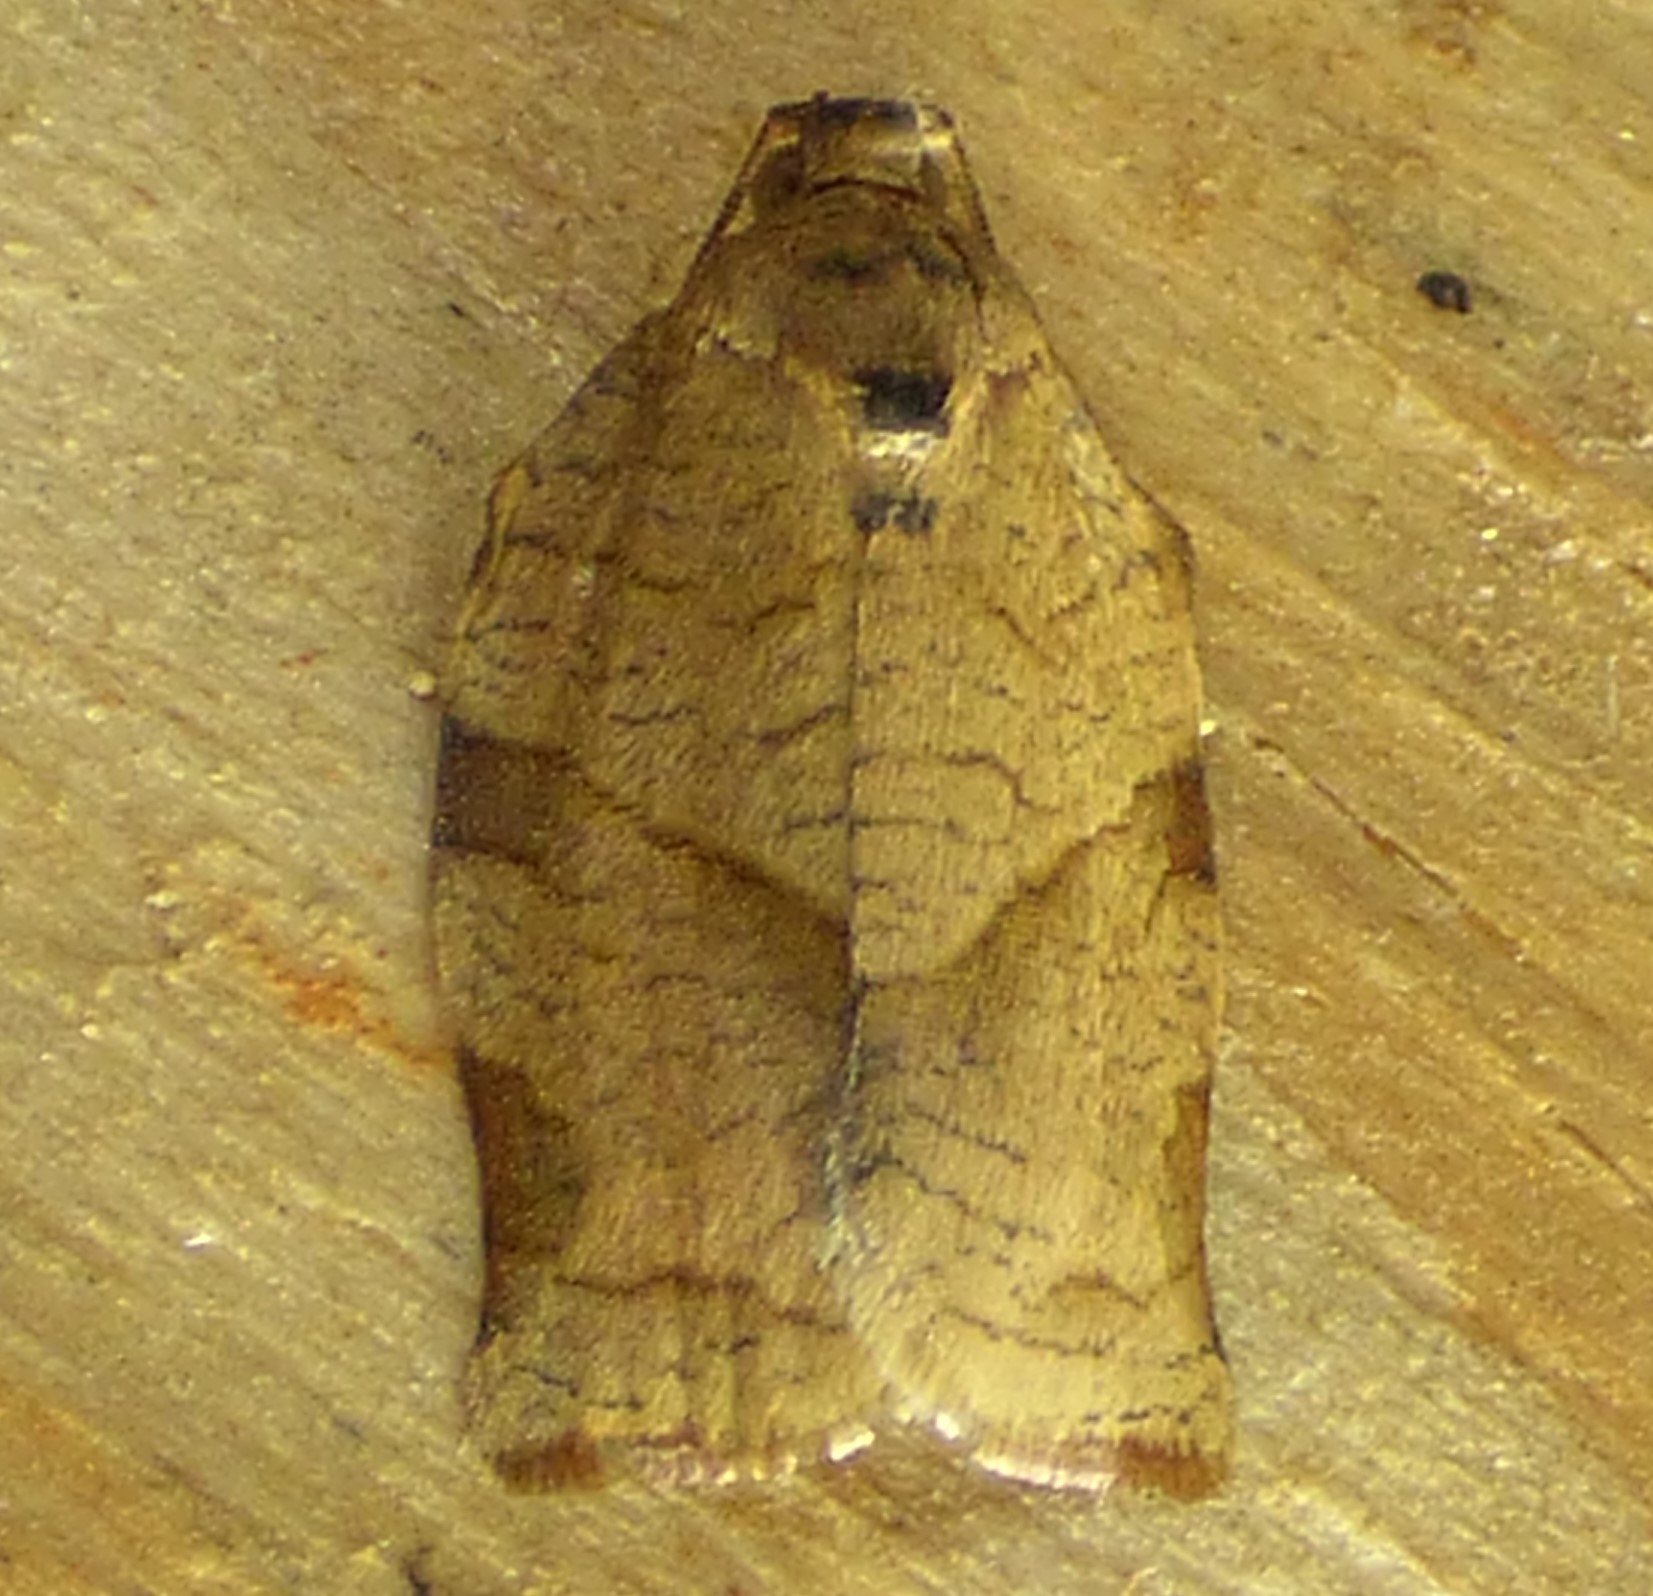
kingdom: Animalia
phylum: Arthropoda
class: Insecta
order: Lepidoptera
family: Tortricidae
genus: Choristoneura
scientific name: Choristoneura rosaceana
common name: Oblique-banded leafroller moth
